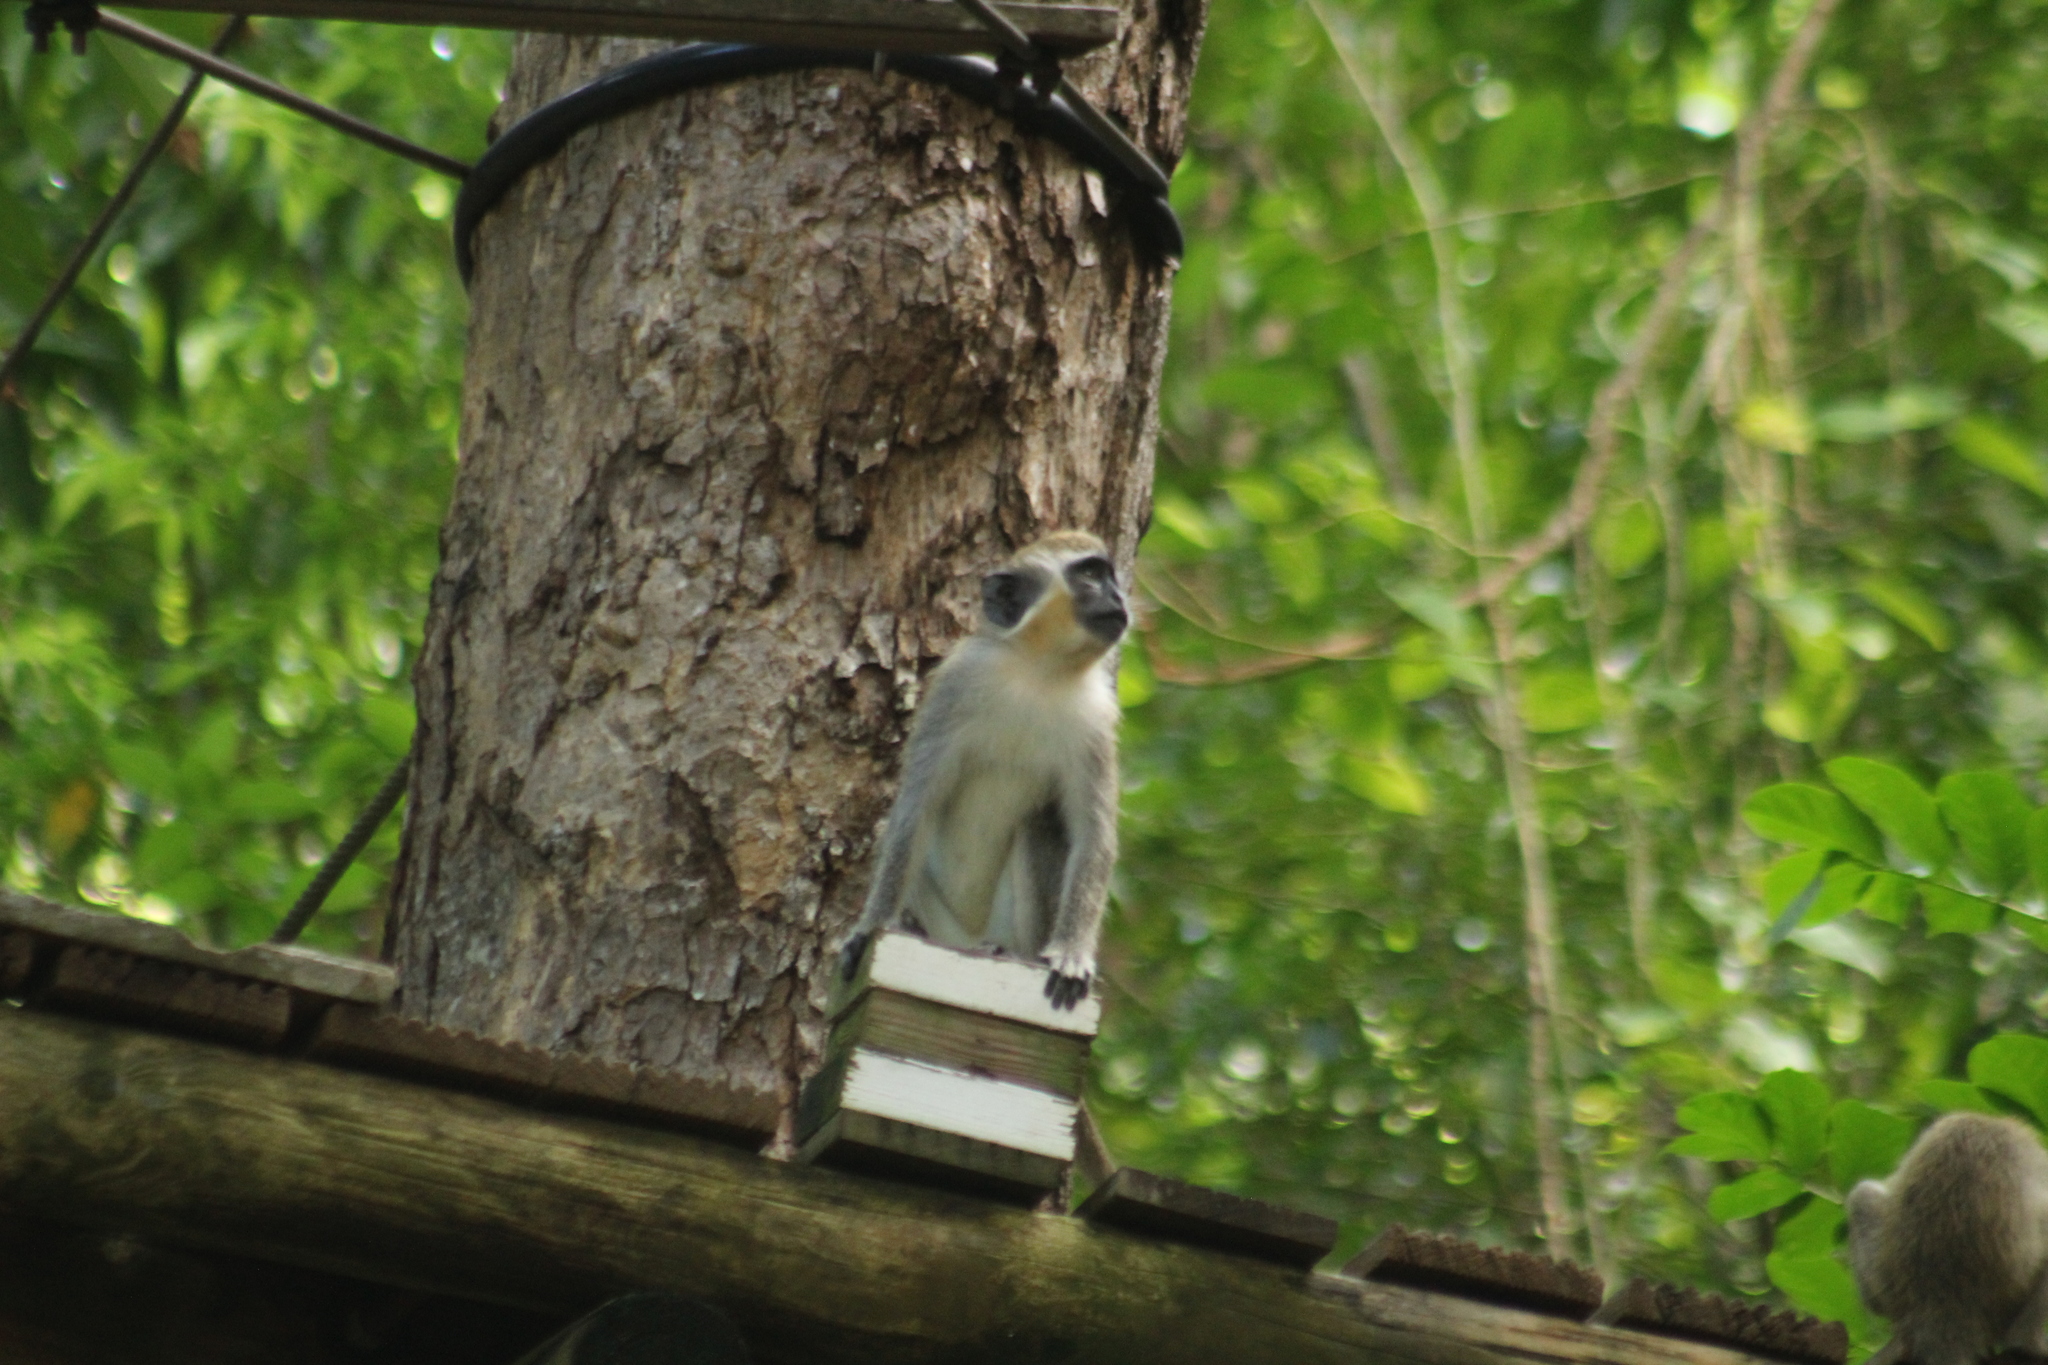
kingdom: Animalia
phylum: Chordata
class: Mammalia
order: Primates
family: Cercopithecidae
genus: Chlorocebus
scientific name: Chlorocebus sabaeus
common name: Green monkey
